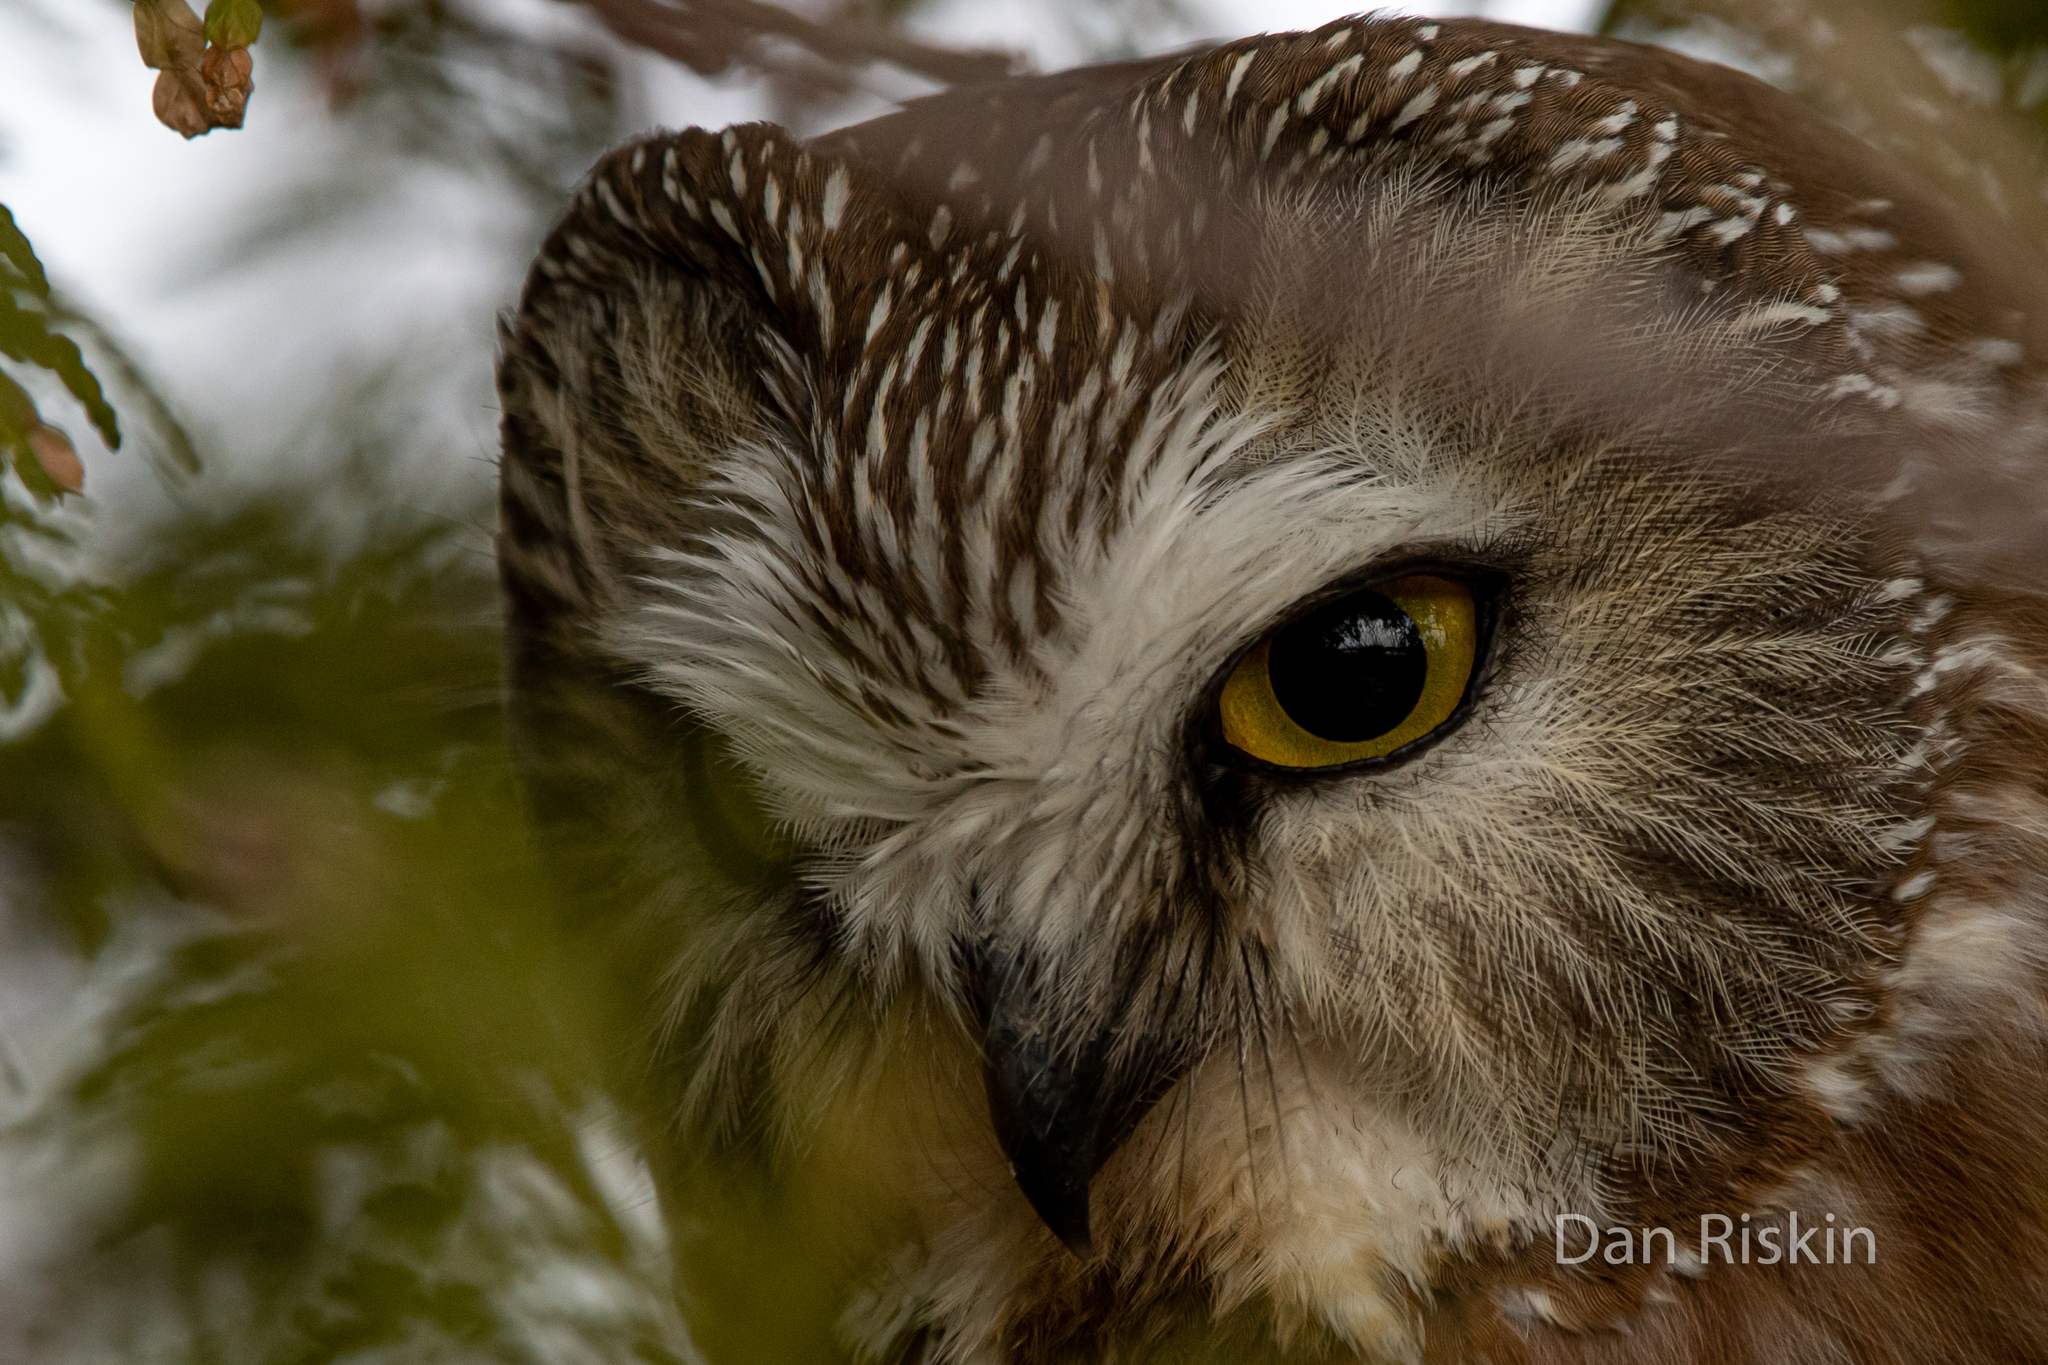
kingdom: Animalia
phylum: Chordata
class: Aves
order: Strigiformes
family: Strigidae
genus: Aegolius
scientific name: Aegolius acadicus
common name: Northern saw-whet owl
